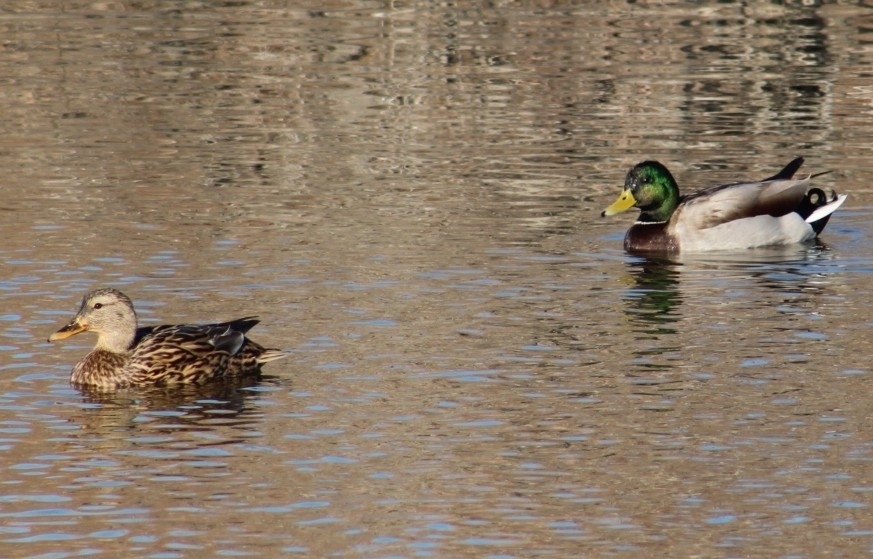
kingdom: Animalia
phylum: Chordata
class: Aves
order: Anseriformes
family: Anatidae
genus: Anas
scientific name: Anas platyrhynchos
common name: Mallard
